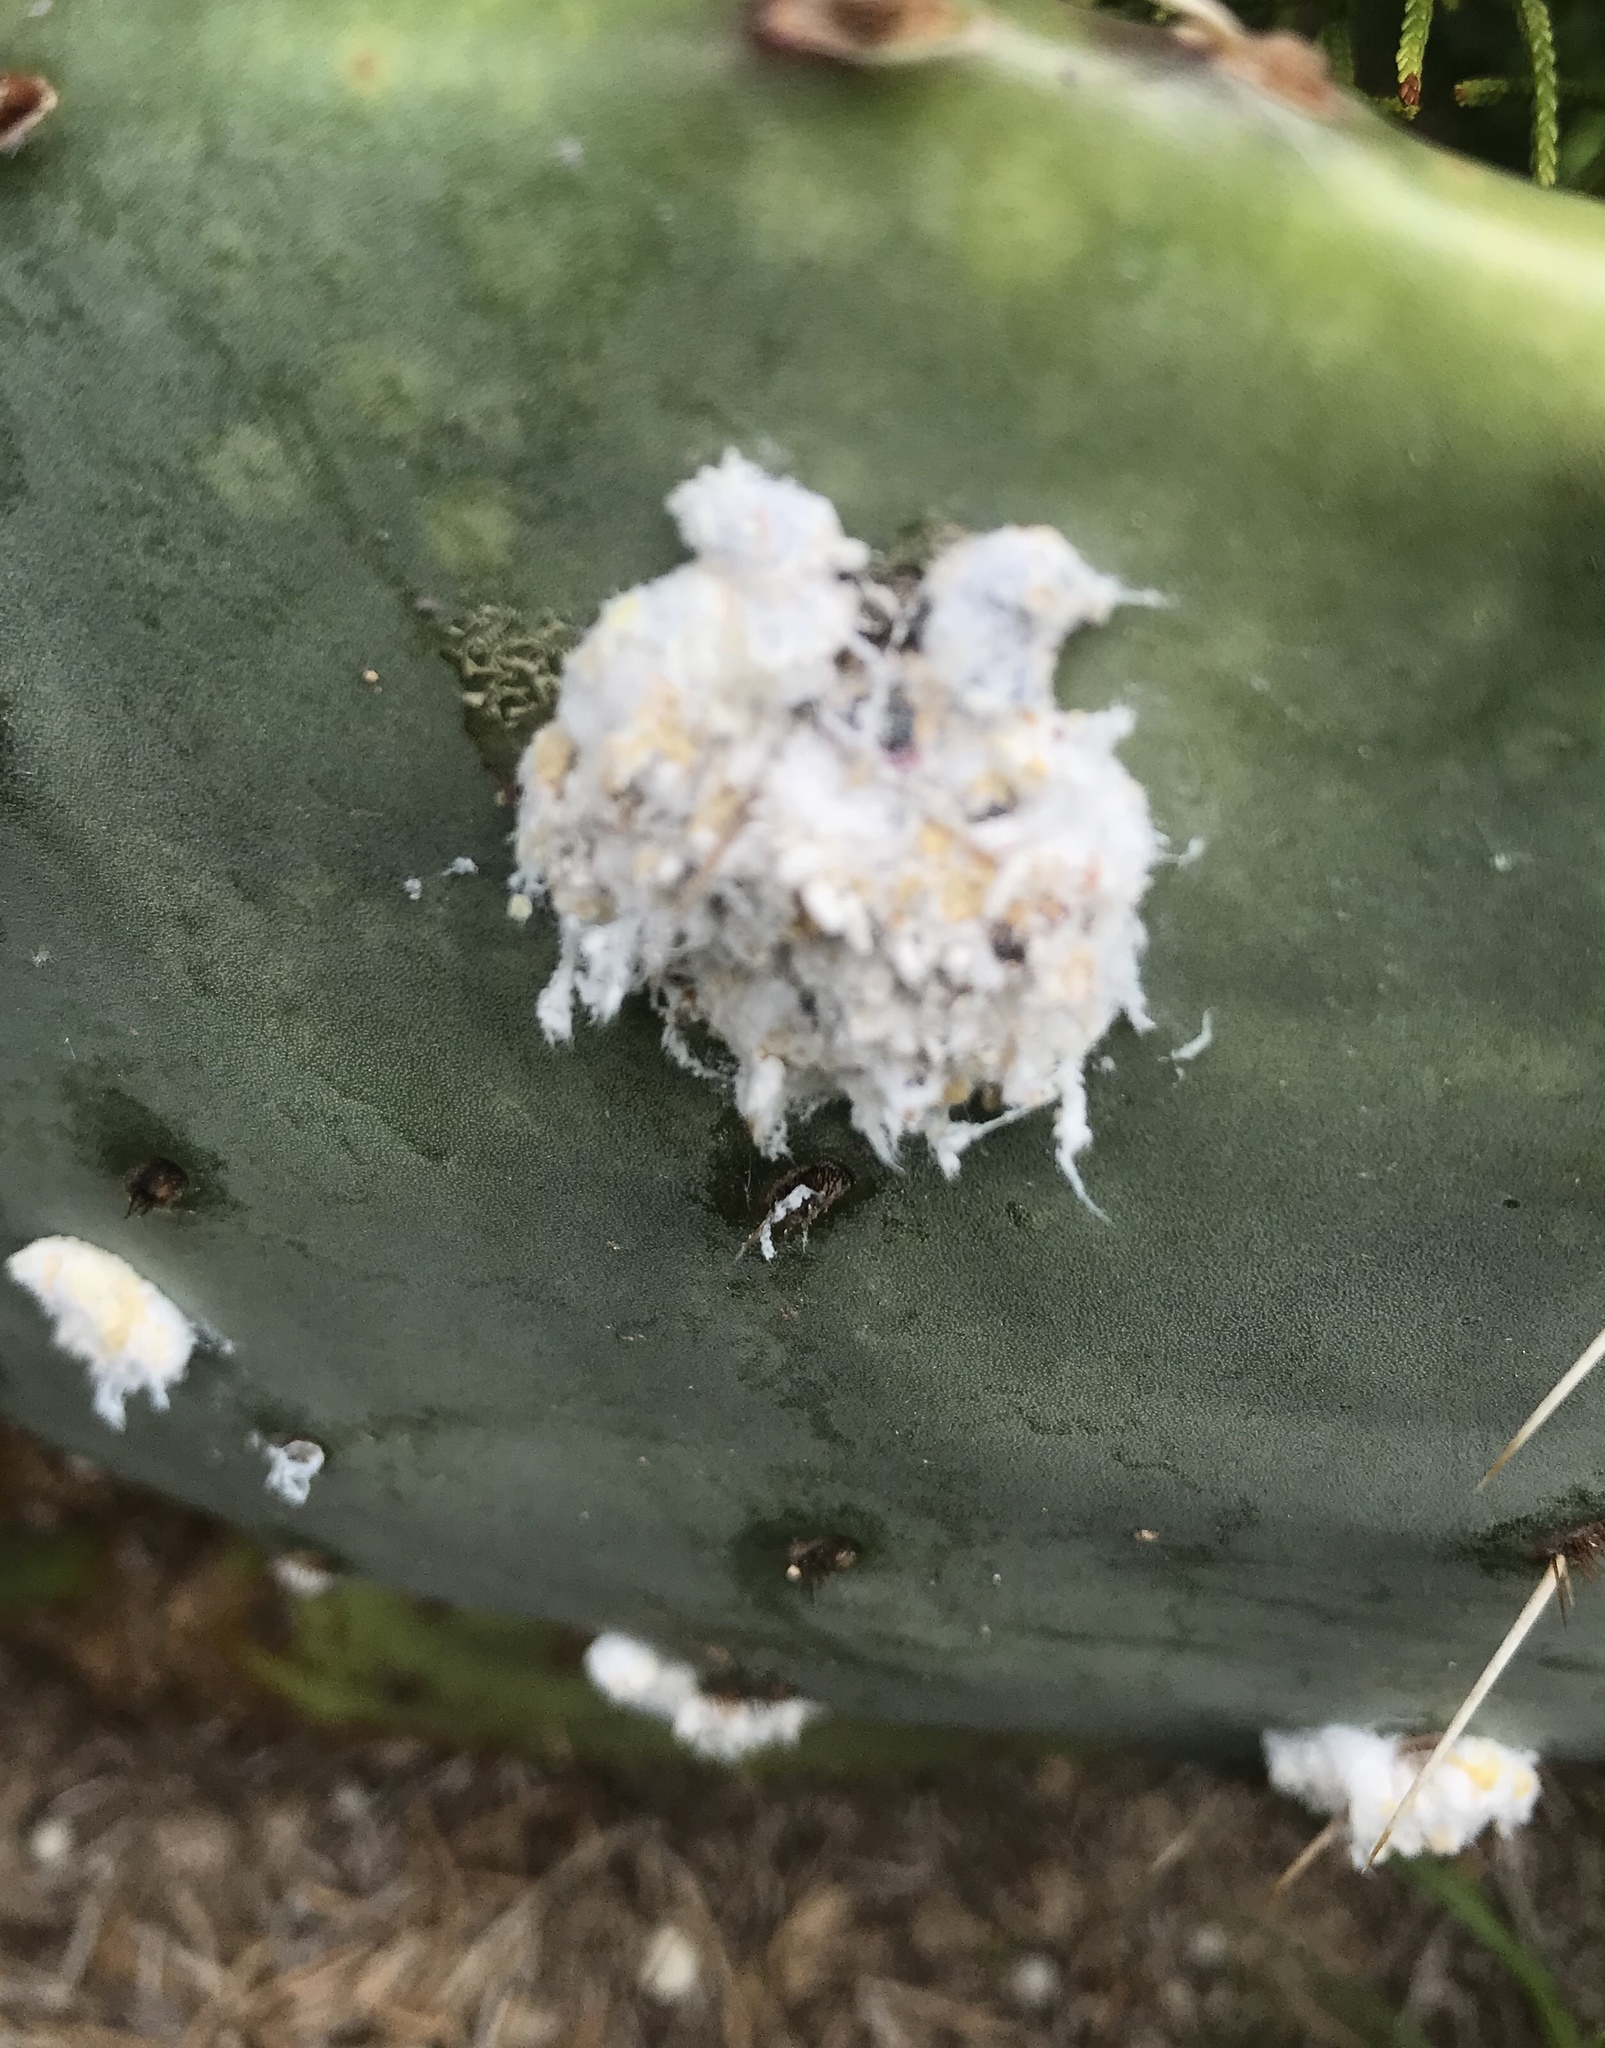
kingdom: Animalia
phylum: Arthropoda
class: Insecta
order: Hemiptera
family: Dactylopiidae
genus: Dactylopius
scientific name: Dactylopius opuntiae
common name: Opuntia cochineal scale
